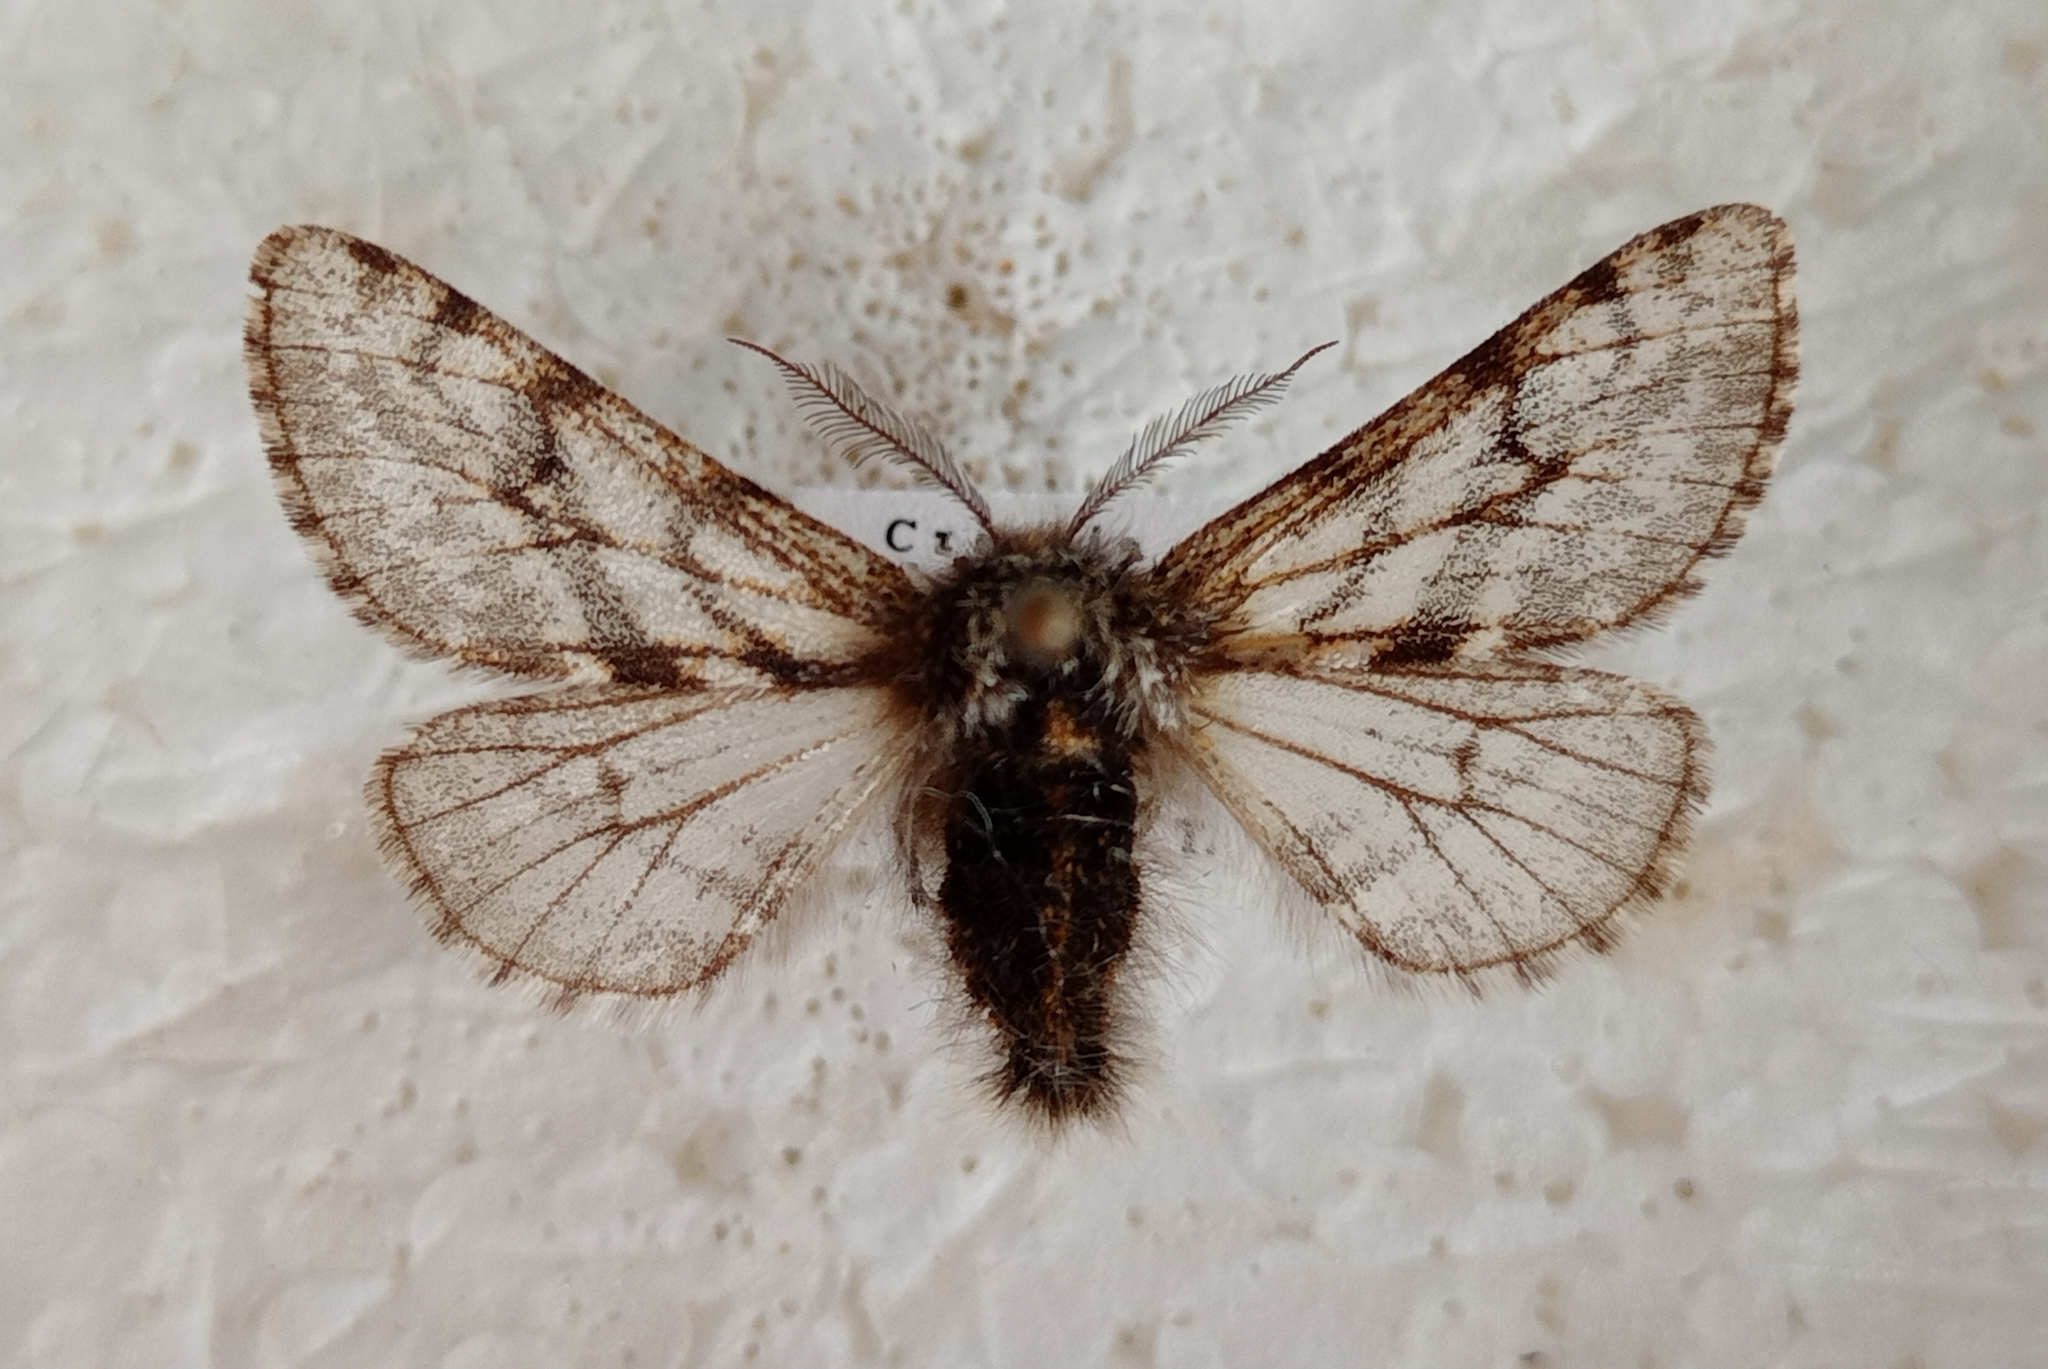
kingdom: Animalia
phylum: Arthropoda
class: Insecta
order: Lepidoptera
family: Geometridae
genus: Lycia
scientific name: Lycia pomonaria
